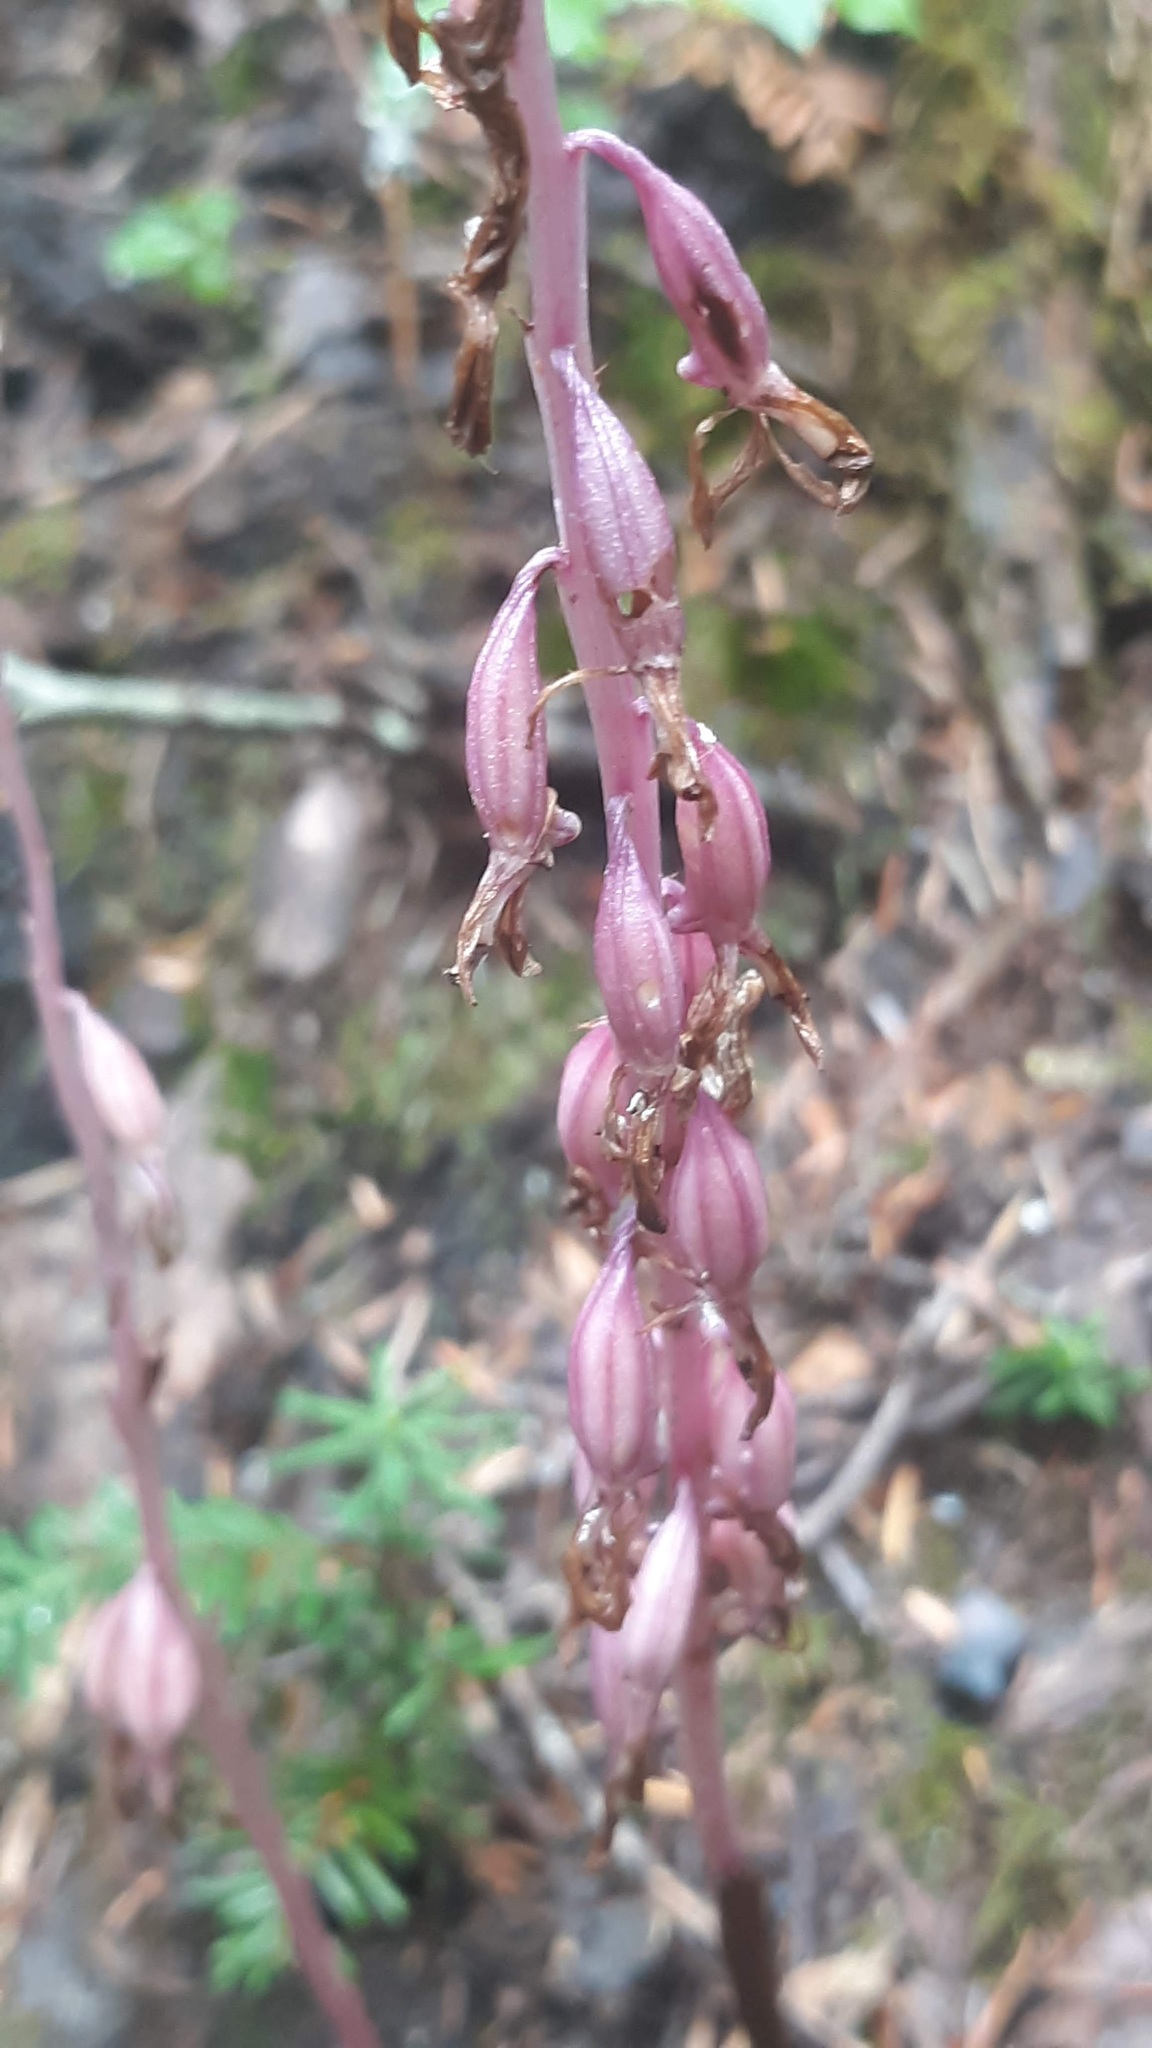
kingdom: Plantae
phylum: Tracheophyta
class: Liliopsida
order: Asparagales
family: Orchidaceae
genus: Corallorhiza
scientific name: Corallorhiza mertensiana
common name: Pacific coralroot
